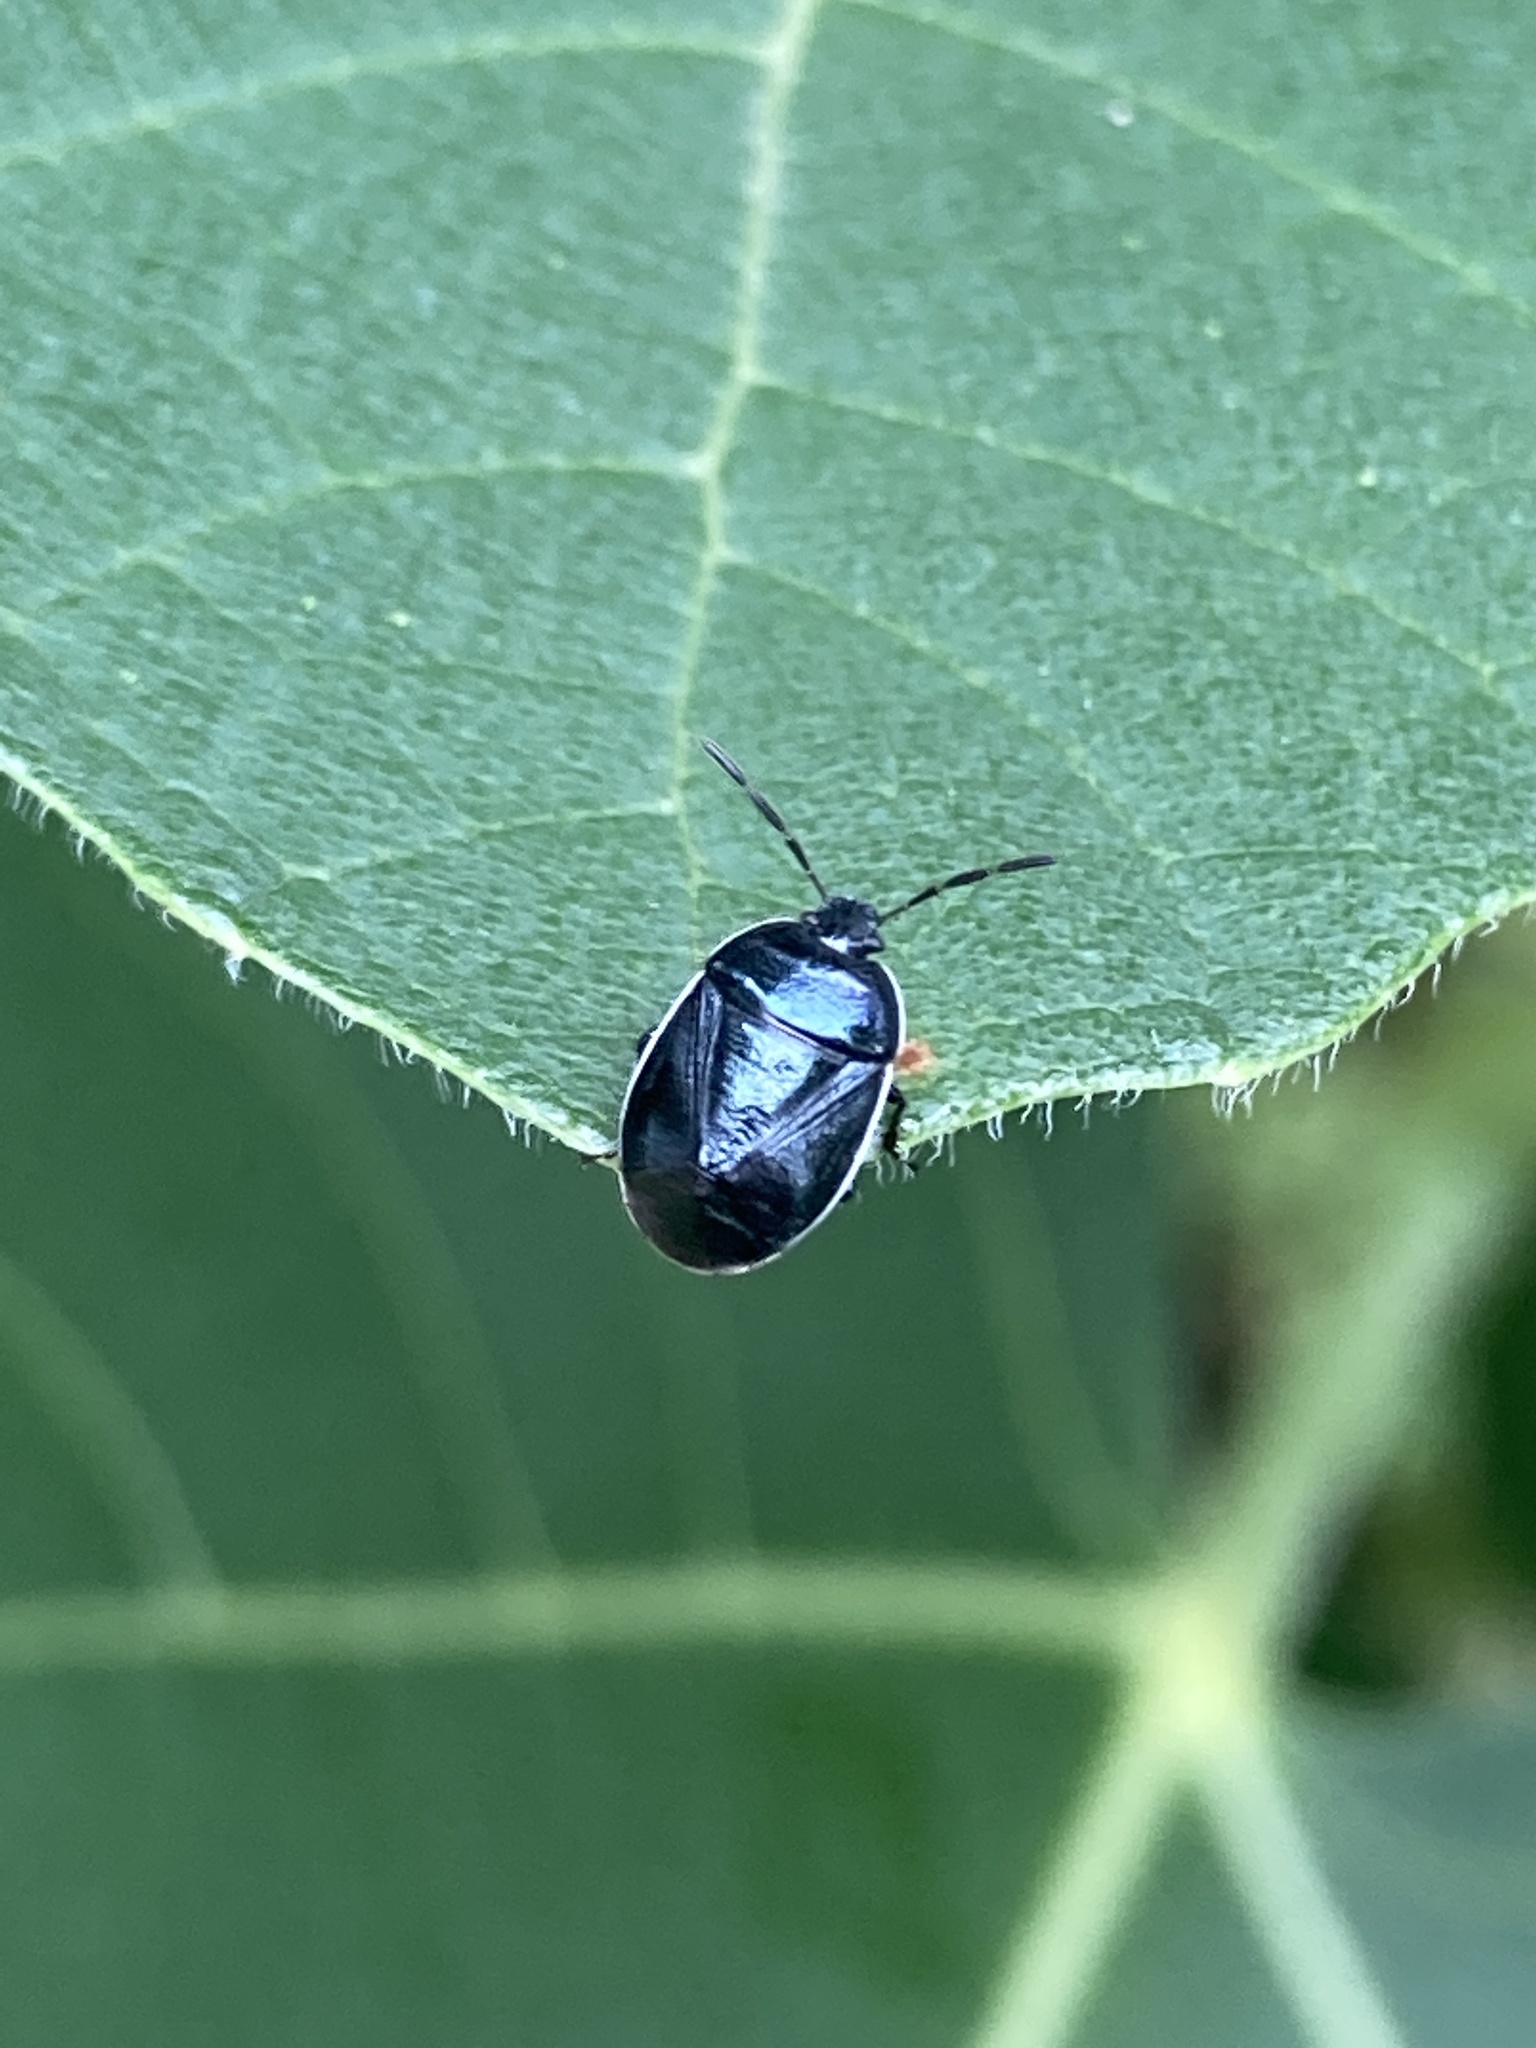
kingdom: Animalia
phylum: Arthropoda
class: Insecta
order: Hemiptera
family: Cydnidae
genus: Sehirus
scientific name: Sehirus cinctus
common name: White-margined burrower bug
